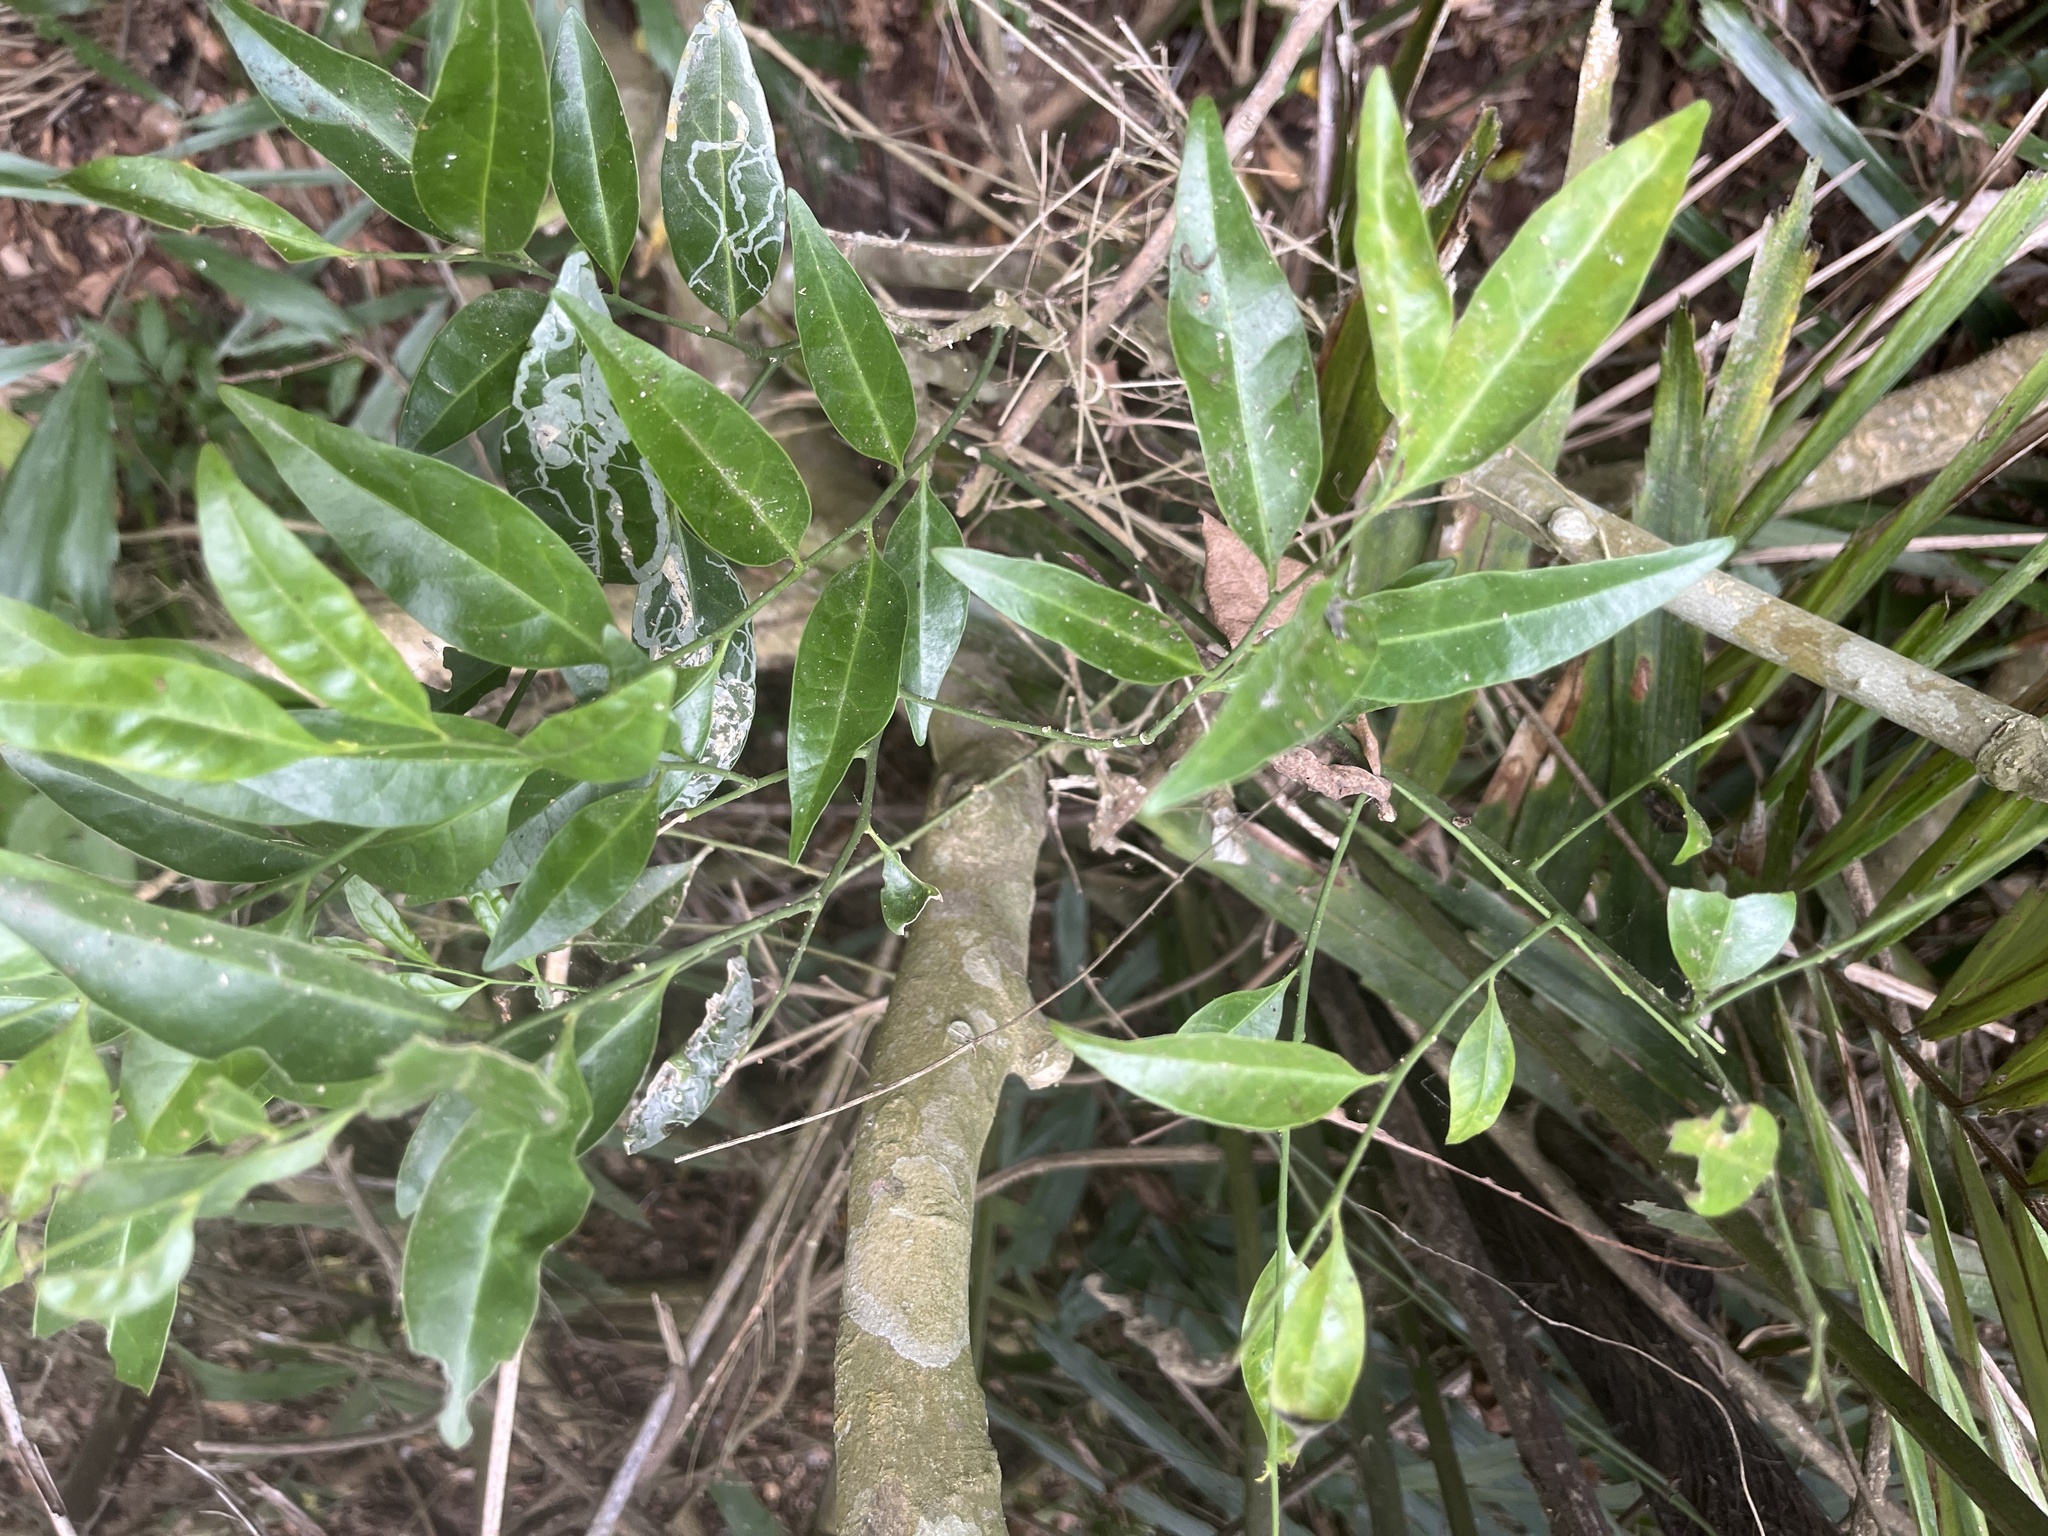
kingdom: Plantae
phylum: Tracheophyta
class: Magnoliopsida
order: Santalales
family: Opiliaceae
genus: Champereia
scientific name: Champereia manillana
